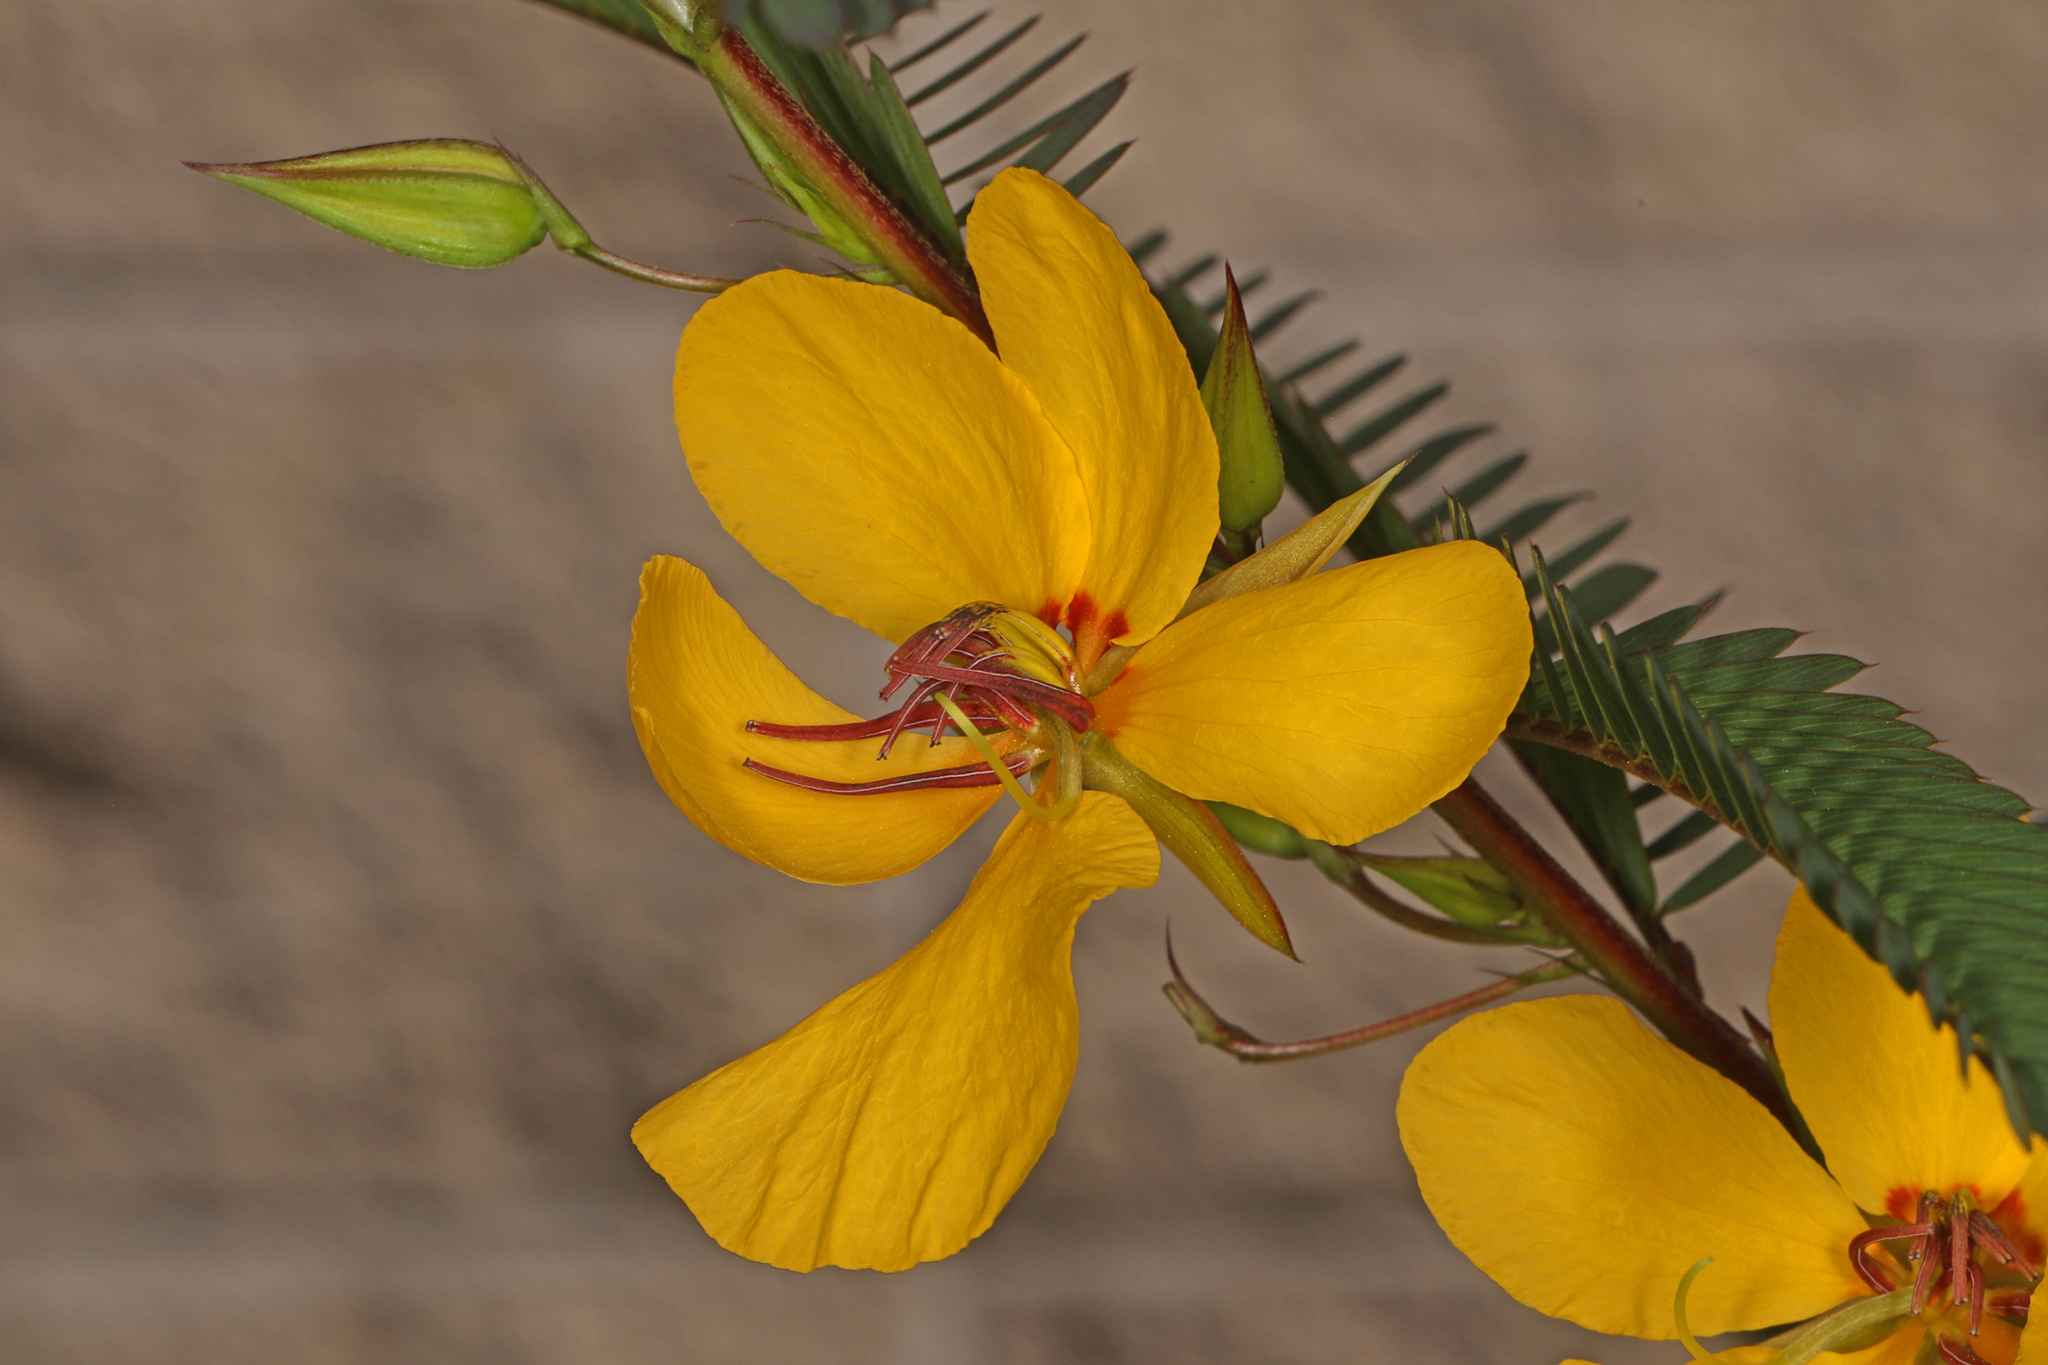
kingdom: Plantae
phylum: Tracheophyta
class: Magnoliopsida
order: Fabales
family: Fabaceae
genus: Chamaecrista
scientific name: Chamaecrista fasciculata
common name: Golden cassia
